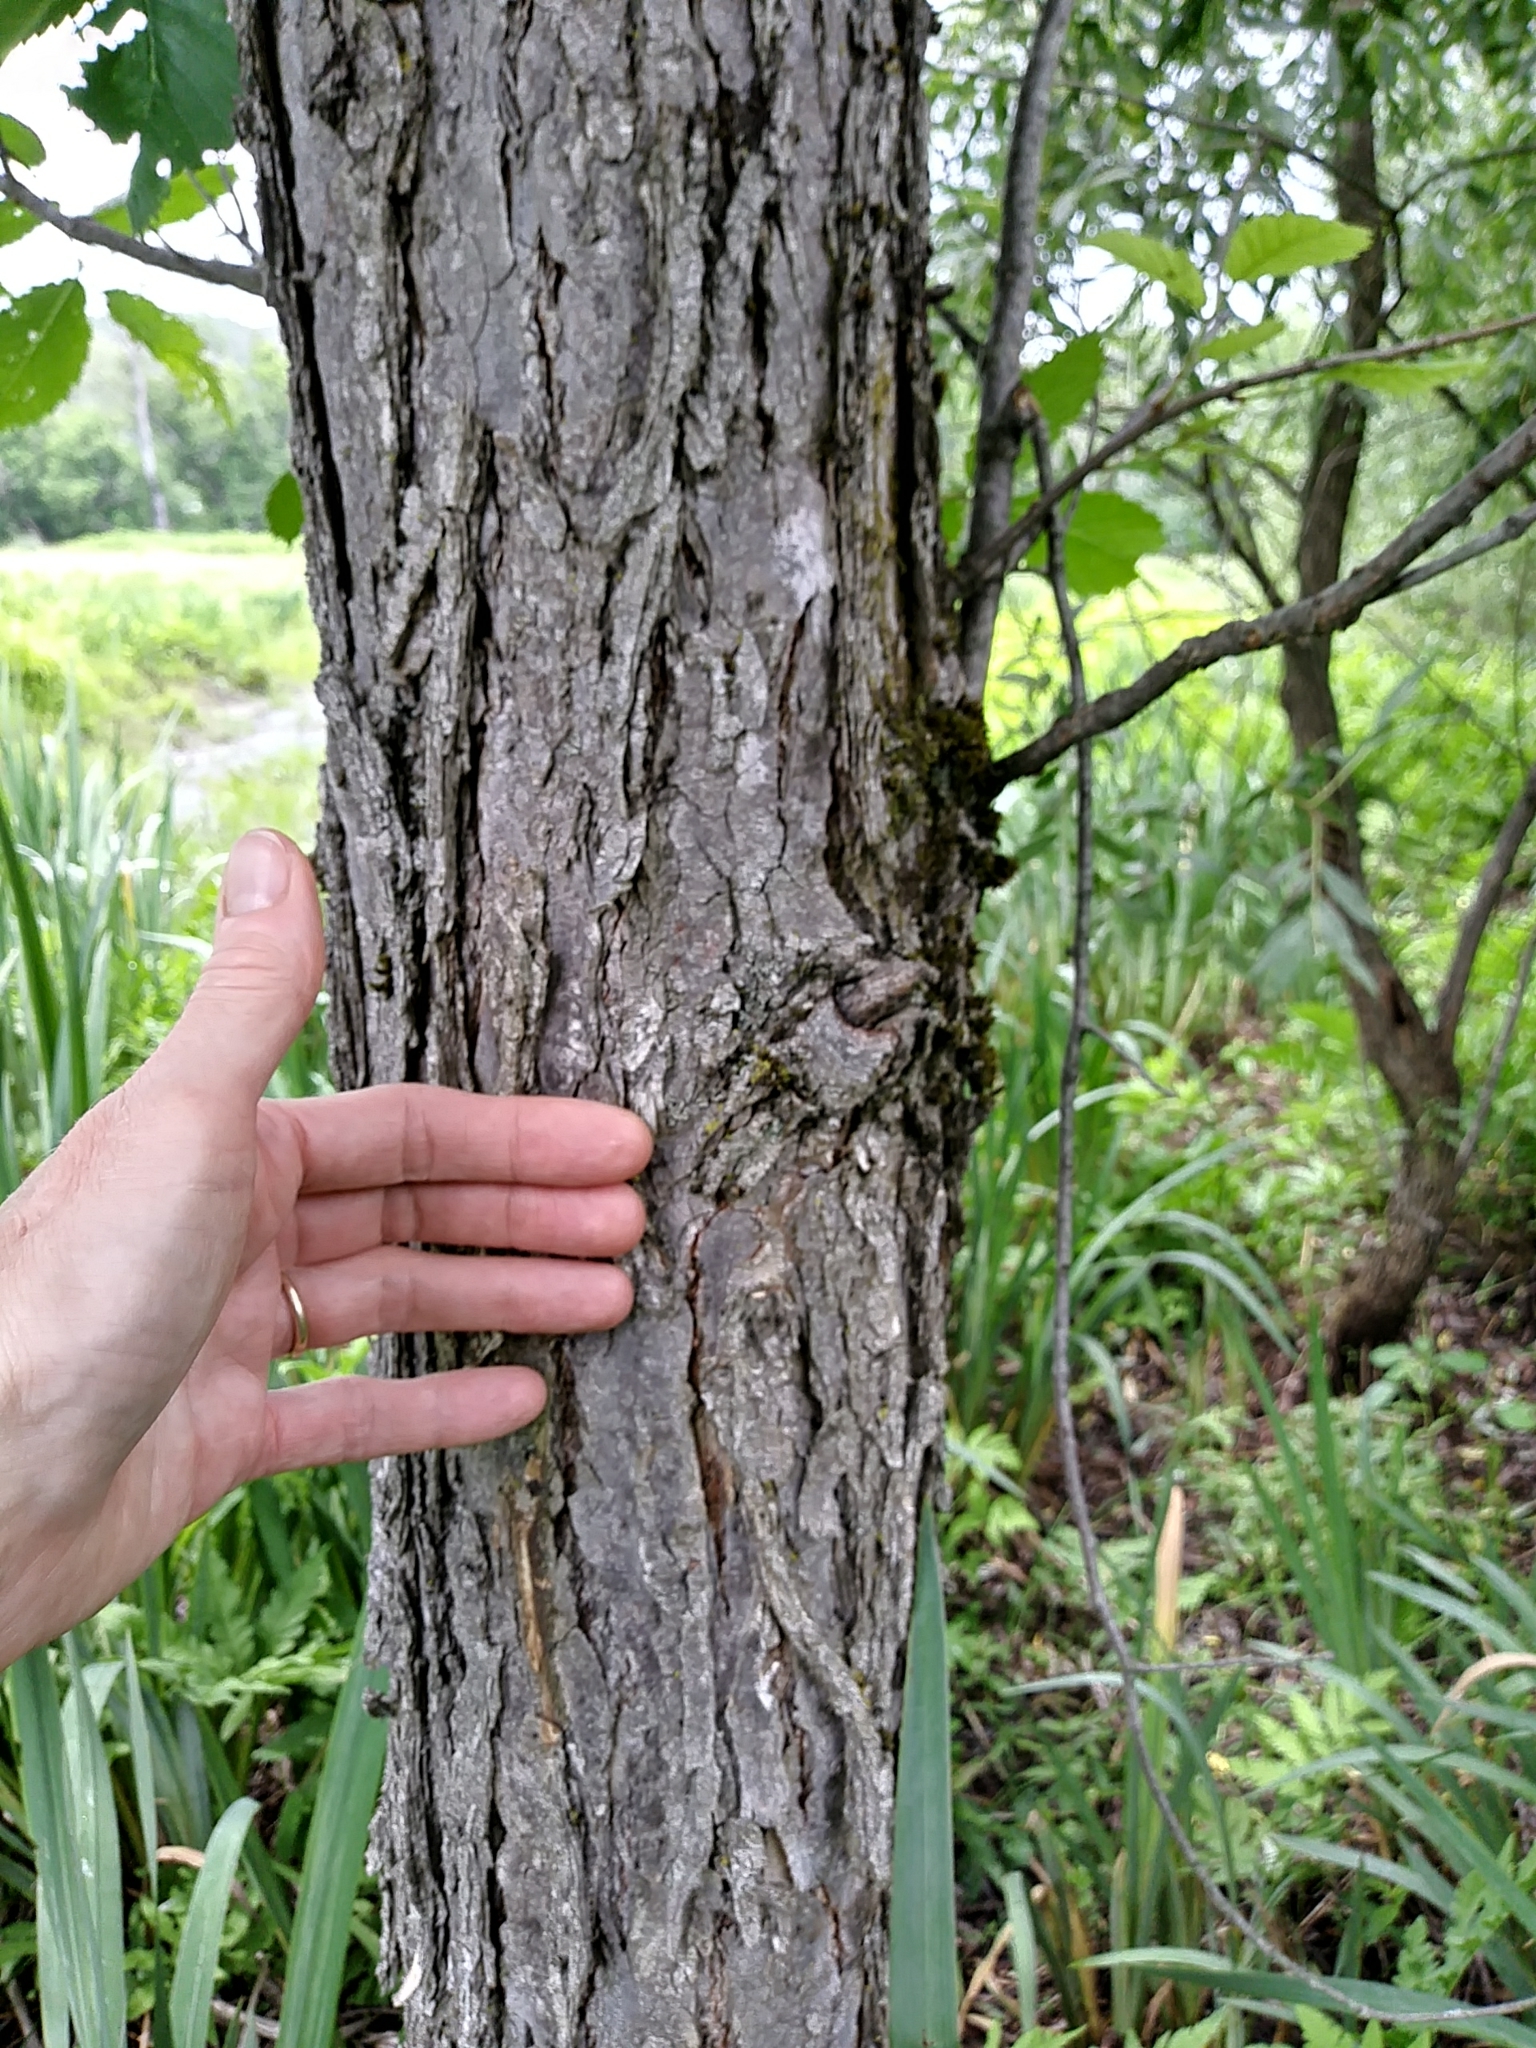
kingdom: Plantae
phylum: Tracheophyta
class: Magnoliopsida
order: Rosales
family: Ulmaceae
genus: Ulmus
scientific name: Ulmus americana
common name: American elm
